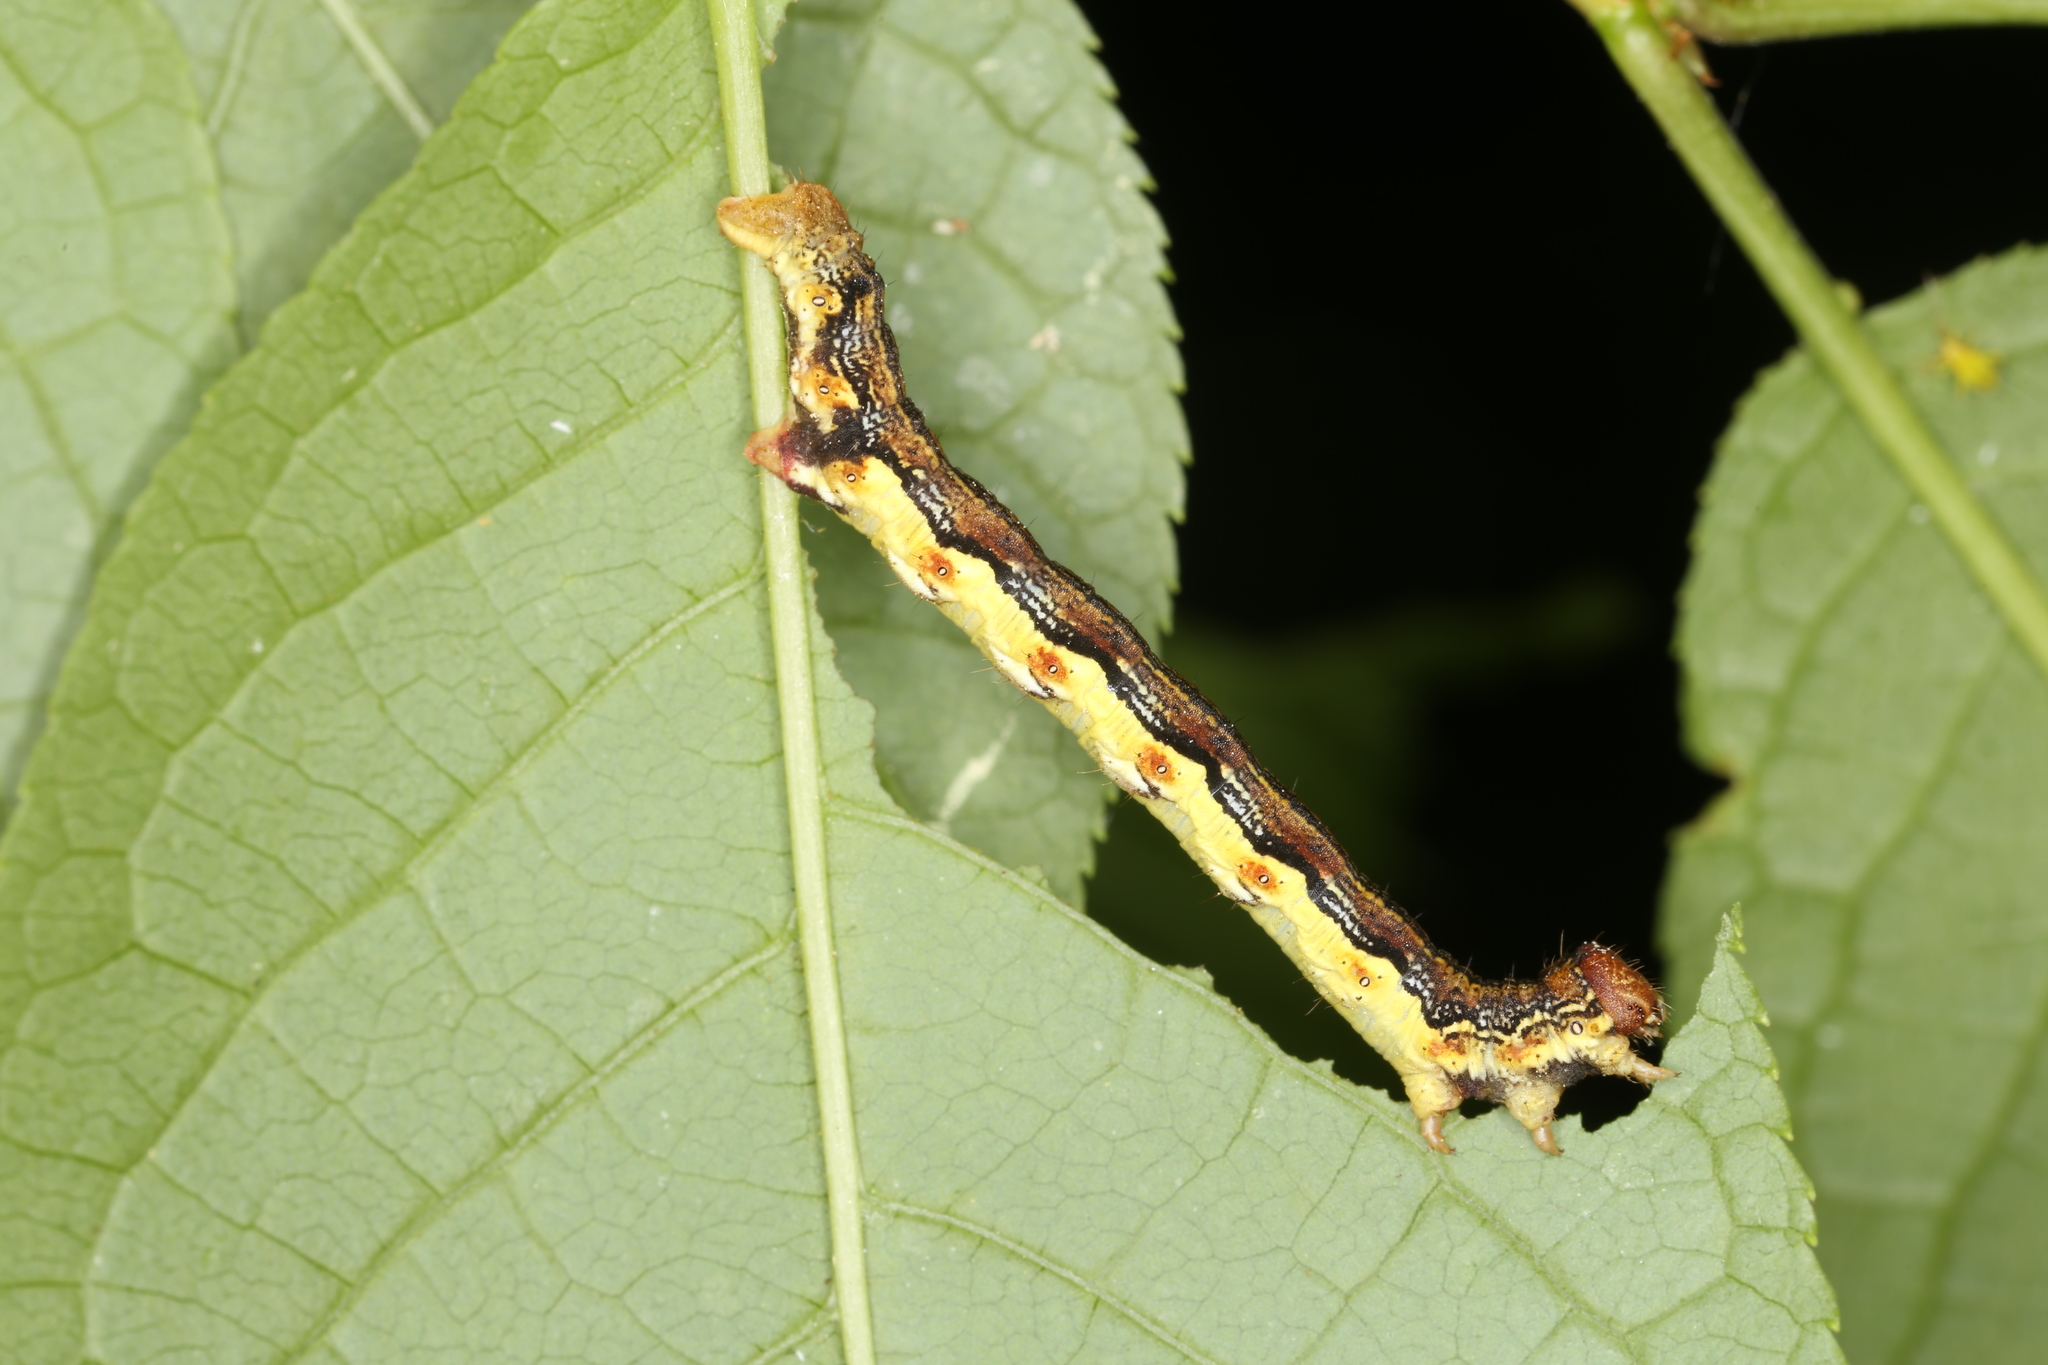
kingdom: Animalia
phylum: Arthropoda
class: Insecta
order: Lepidoptera
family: Geometridae
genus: Erannis
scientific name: Erannis defoliaria
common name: Mottled umber
